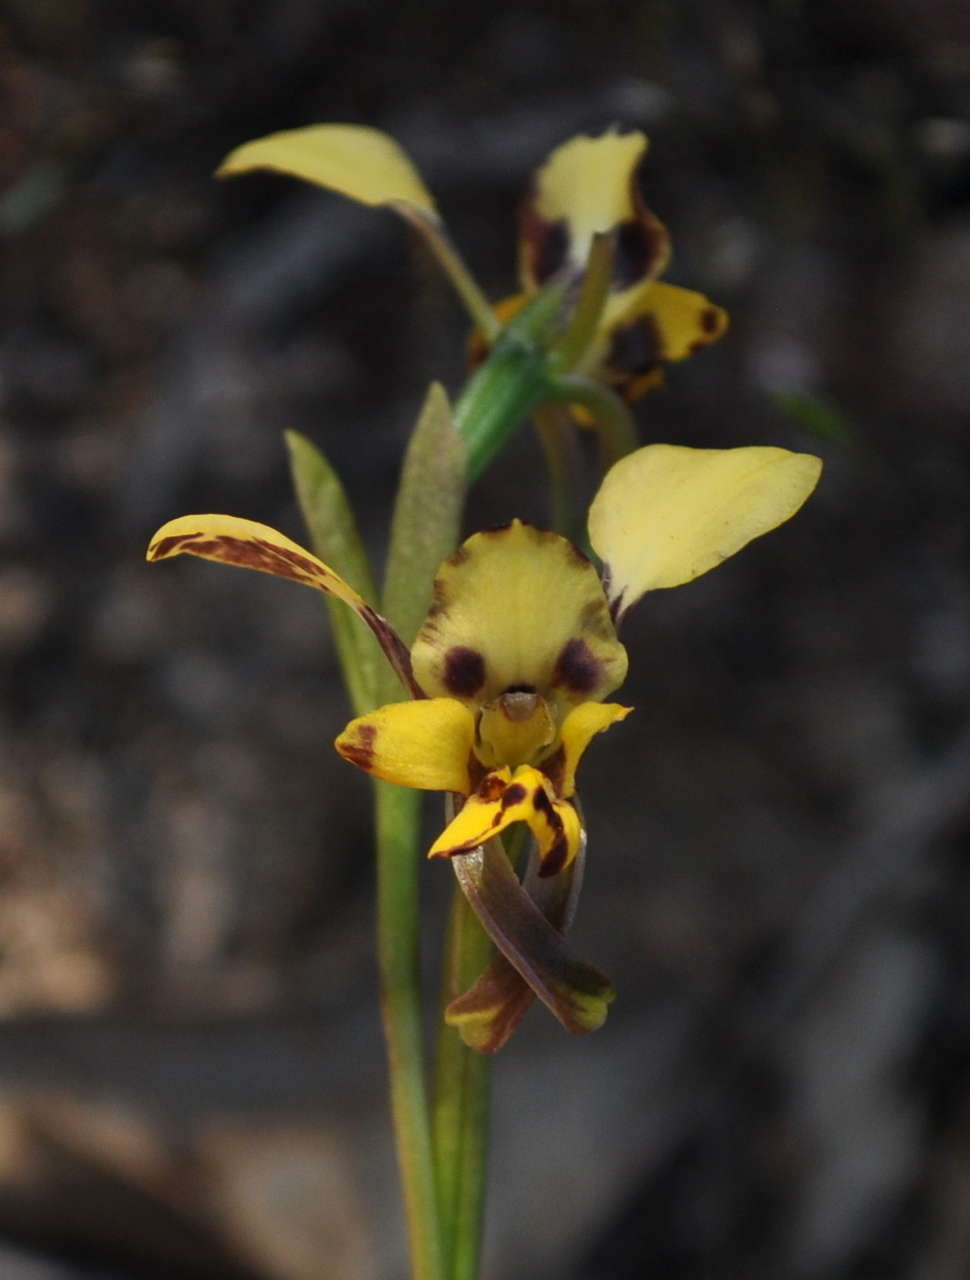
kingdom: Plantae
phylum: Tracheophyta
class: Liliopsida
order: Asparagales
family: Orchidaceae
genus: Diuris
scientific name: Diuris pardina
